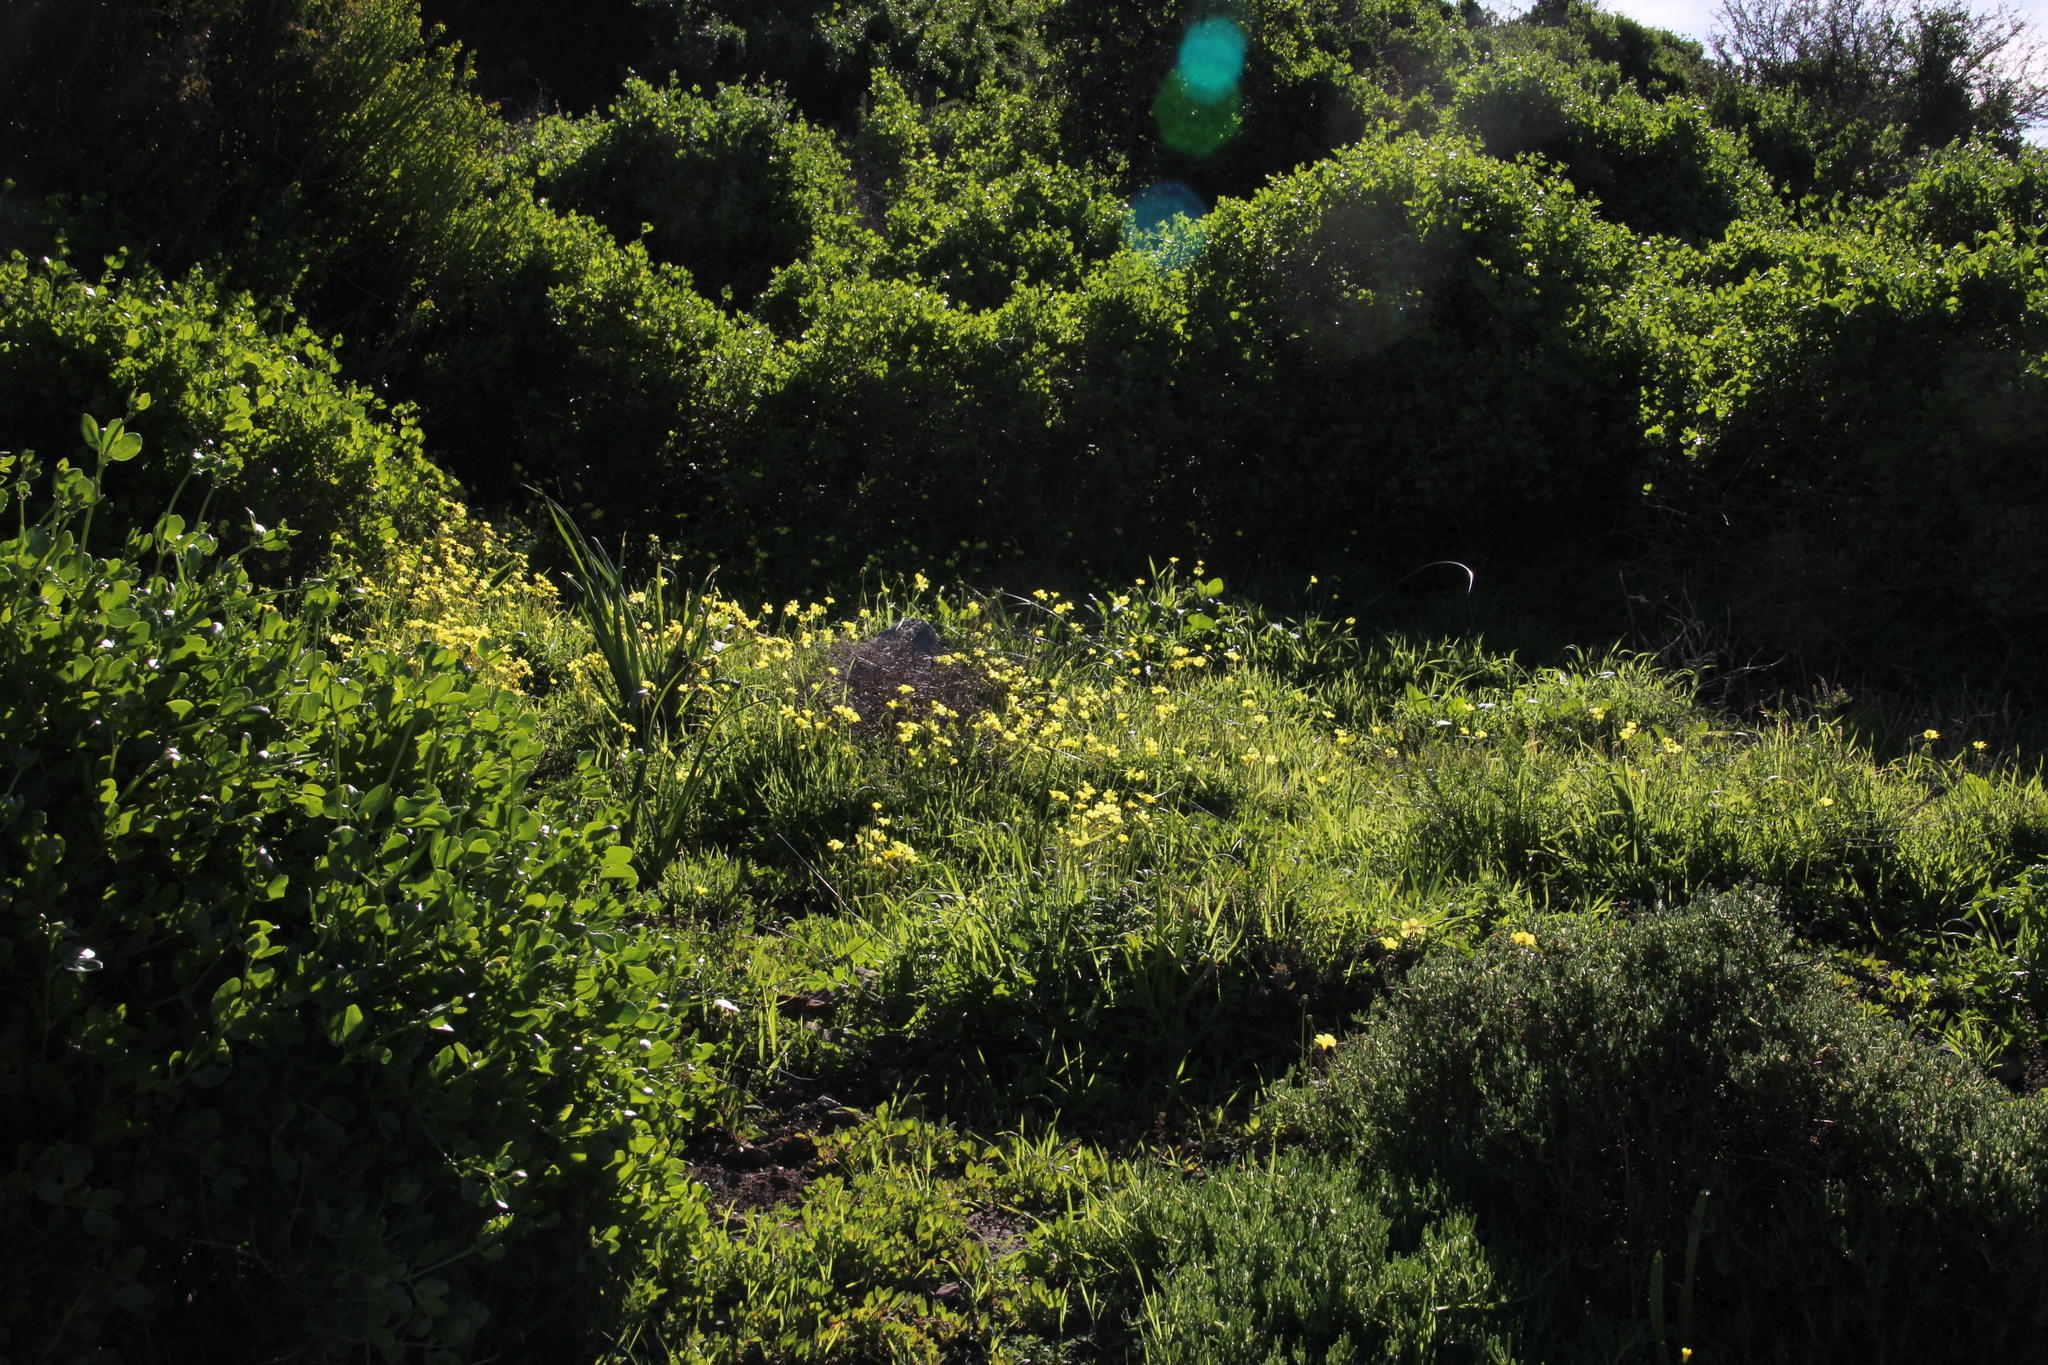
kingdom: Plantae
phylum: Tracheophyta
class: Magnoliopsida
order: Oxalidales
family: Oxalidaceae
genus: Oxalis
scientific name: Oxalis pes-caprae
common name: Bermuda-buttercup
